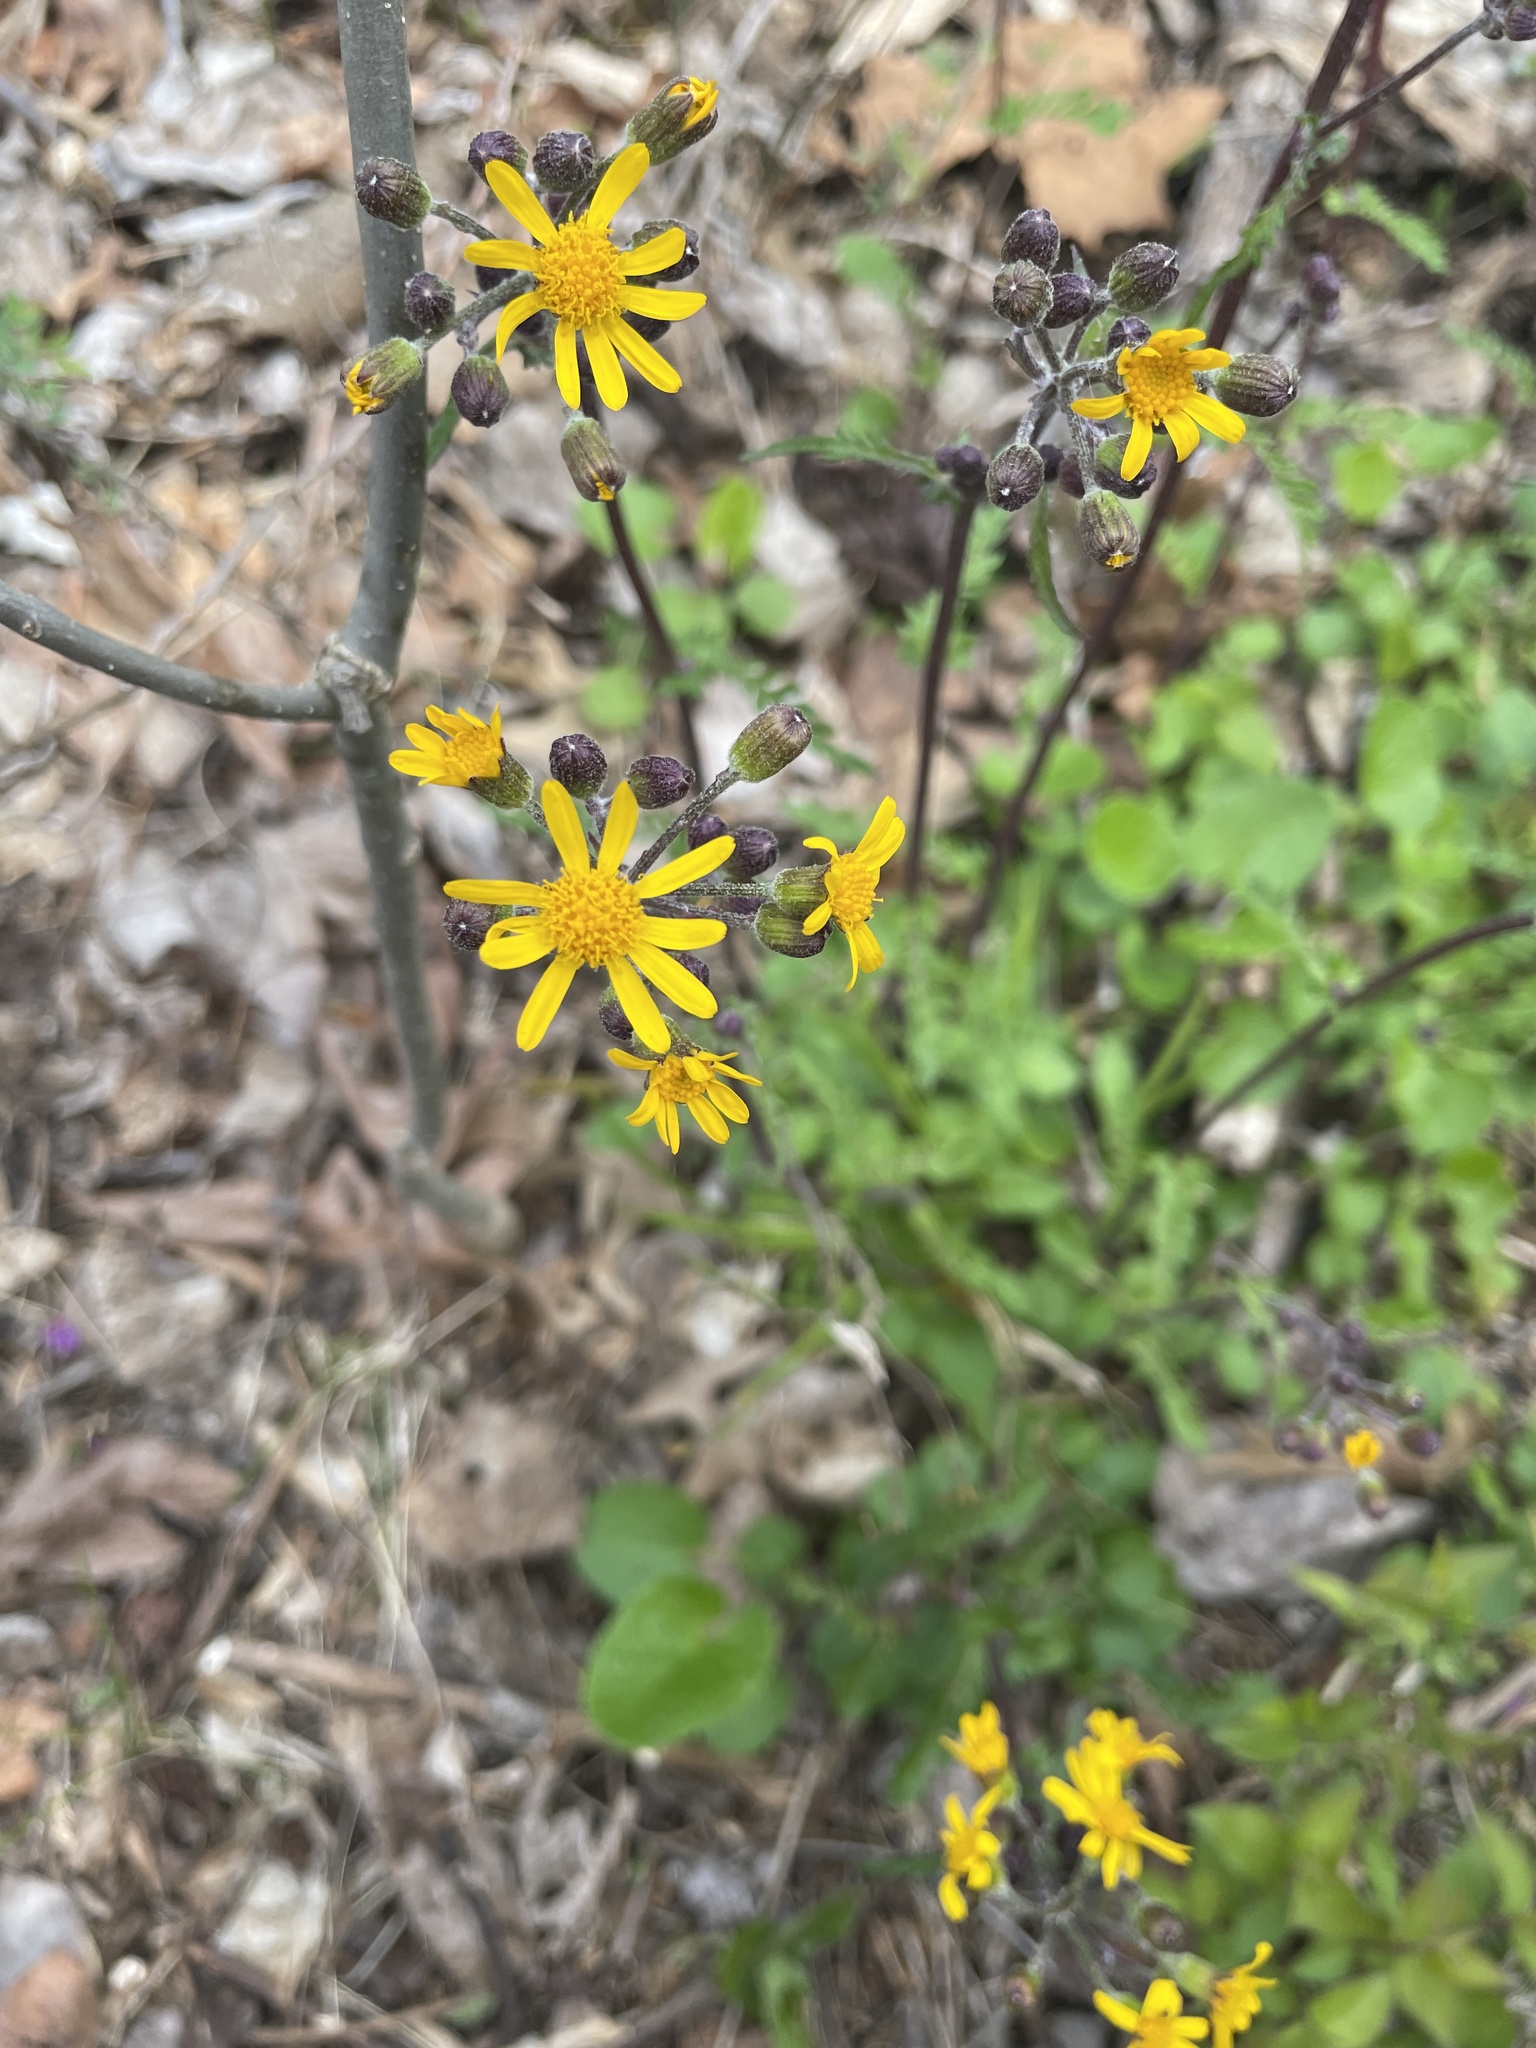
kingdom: Plantae
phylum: Tracheophyta
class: Magnoliopsida
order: Asterales
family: Asteraceae
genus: Packera
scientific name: Packera aurea
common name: Golden groundsel
